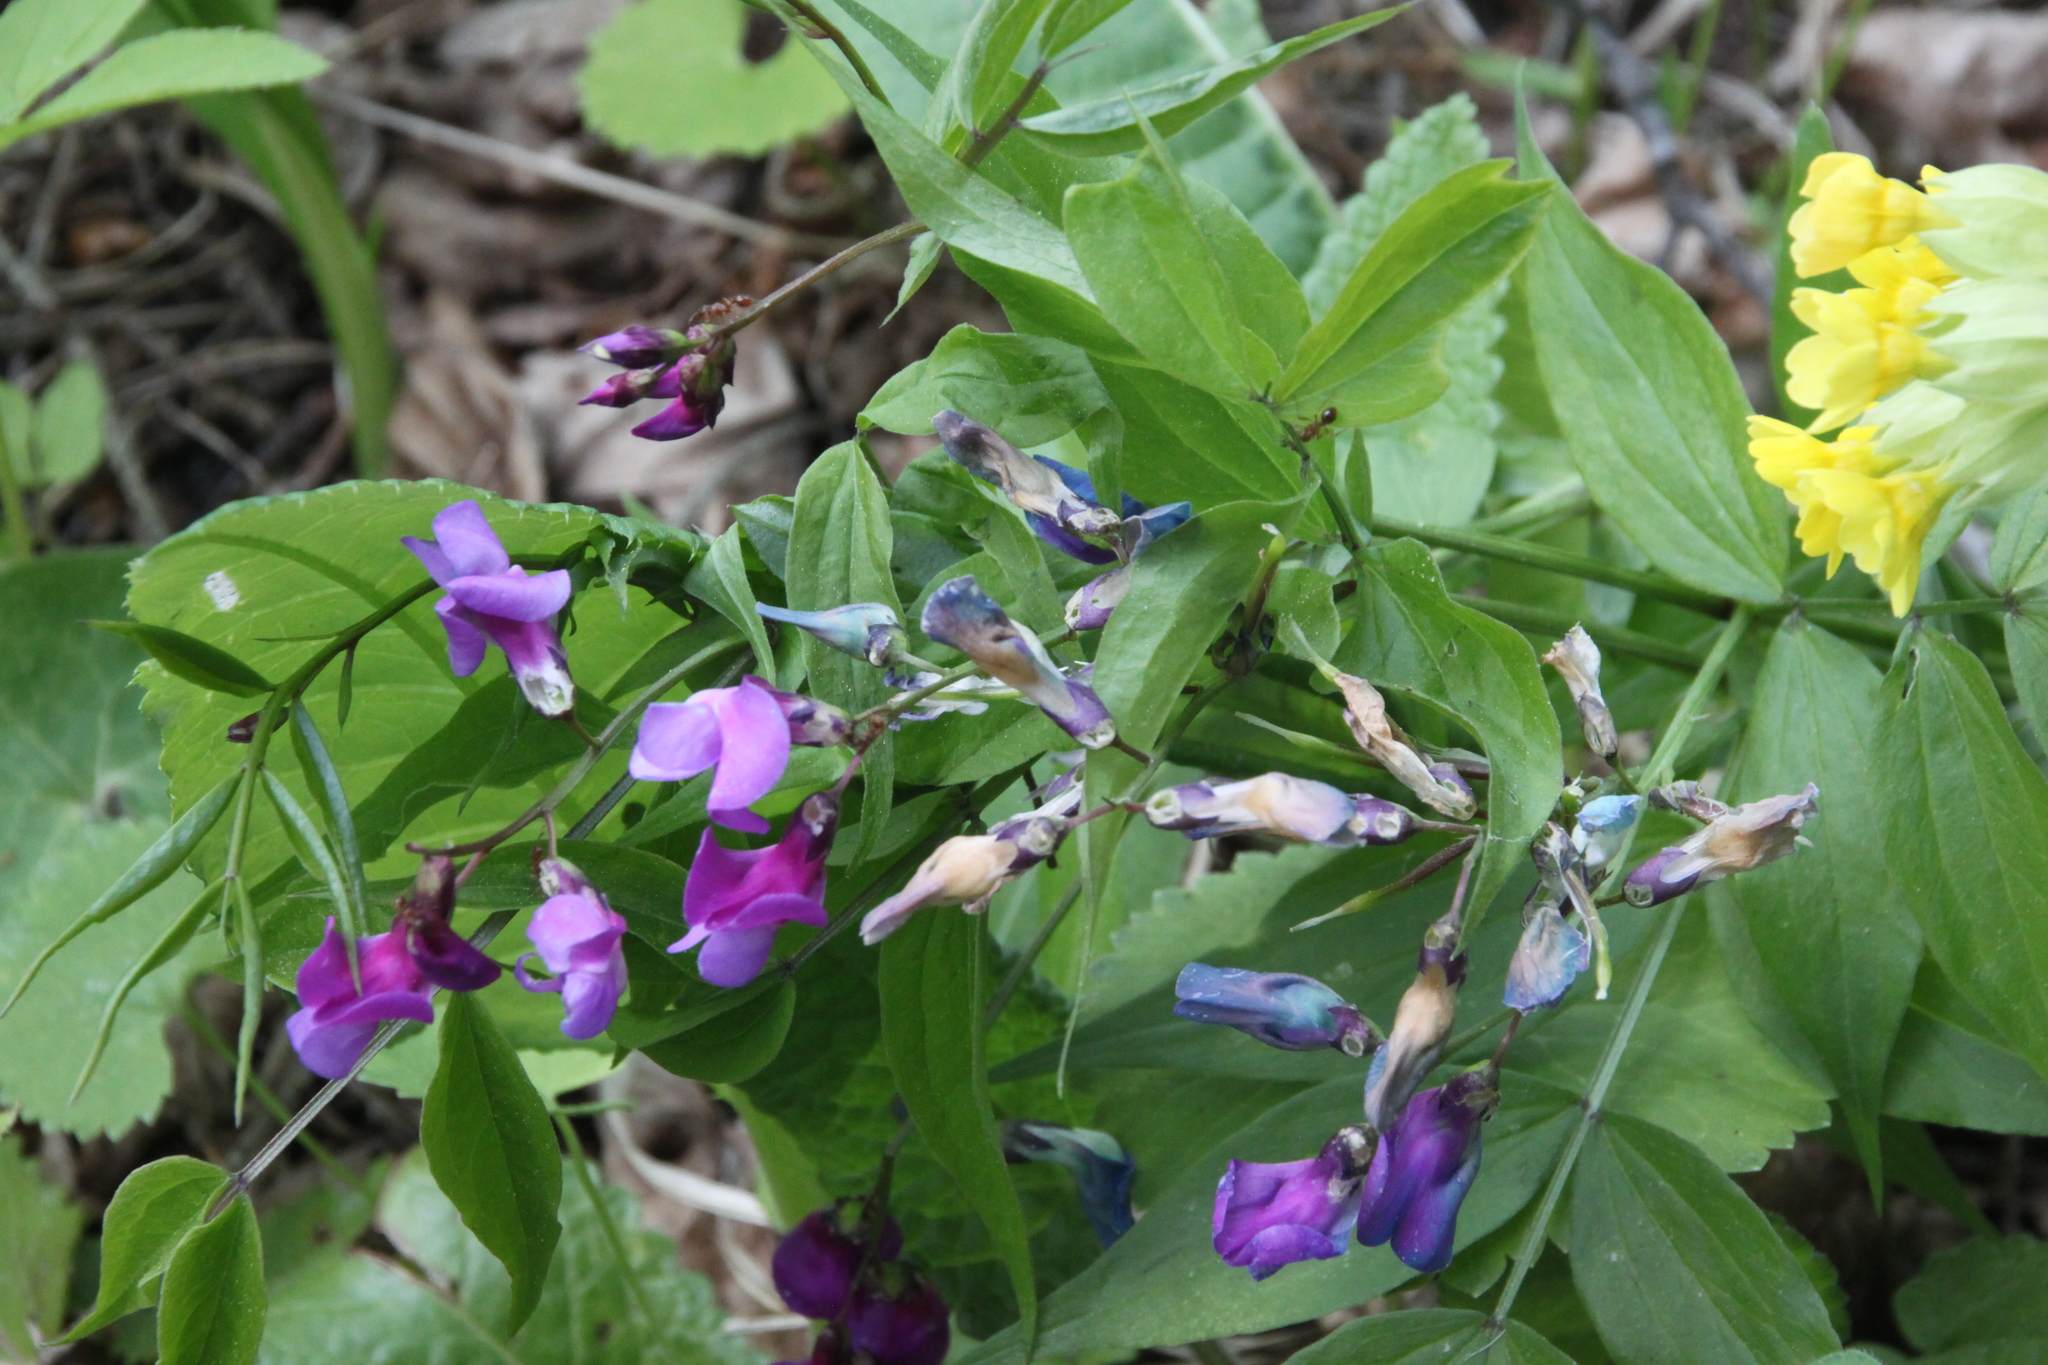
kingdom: Plantae
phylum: Tracheophyta
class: Magnoliopsida
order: Fabales
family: Fabaceae
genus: Lathyrus
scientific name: Lathyrus vernus
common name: Spring pea
